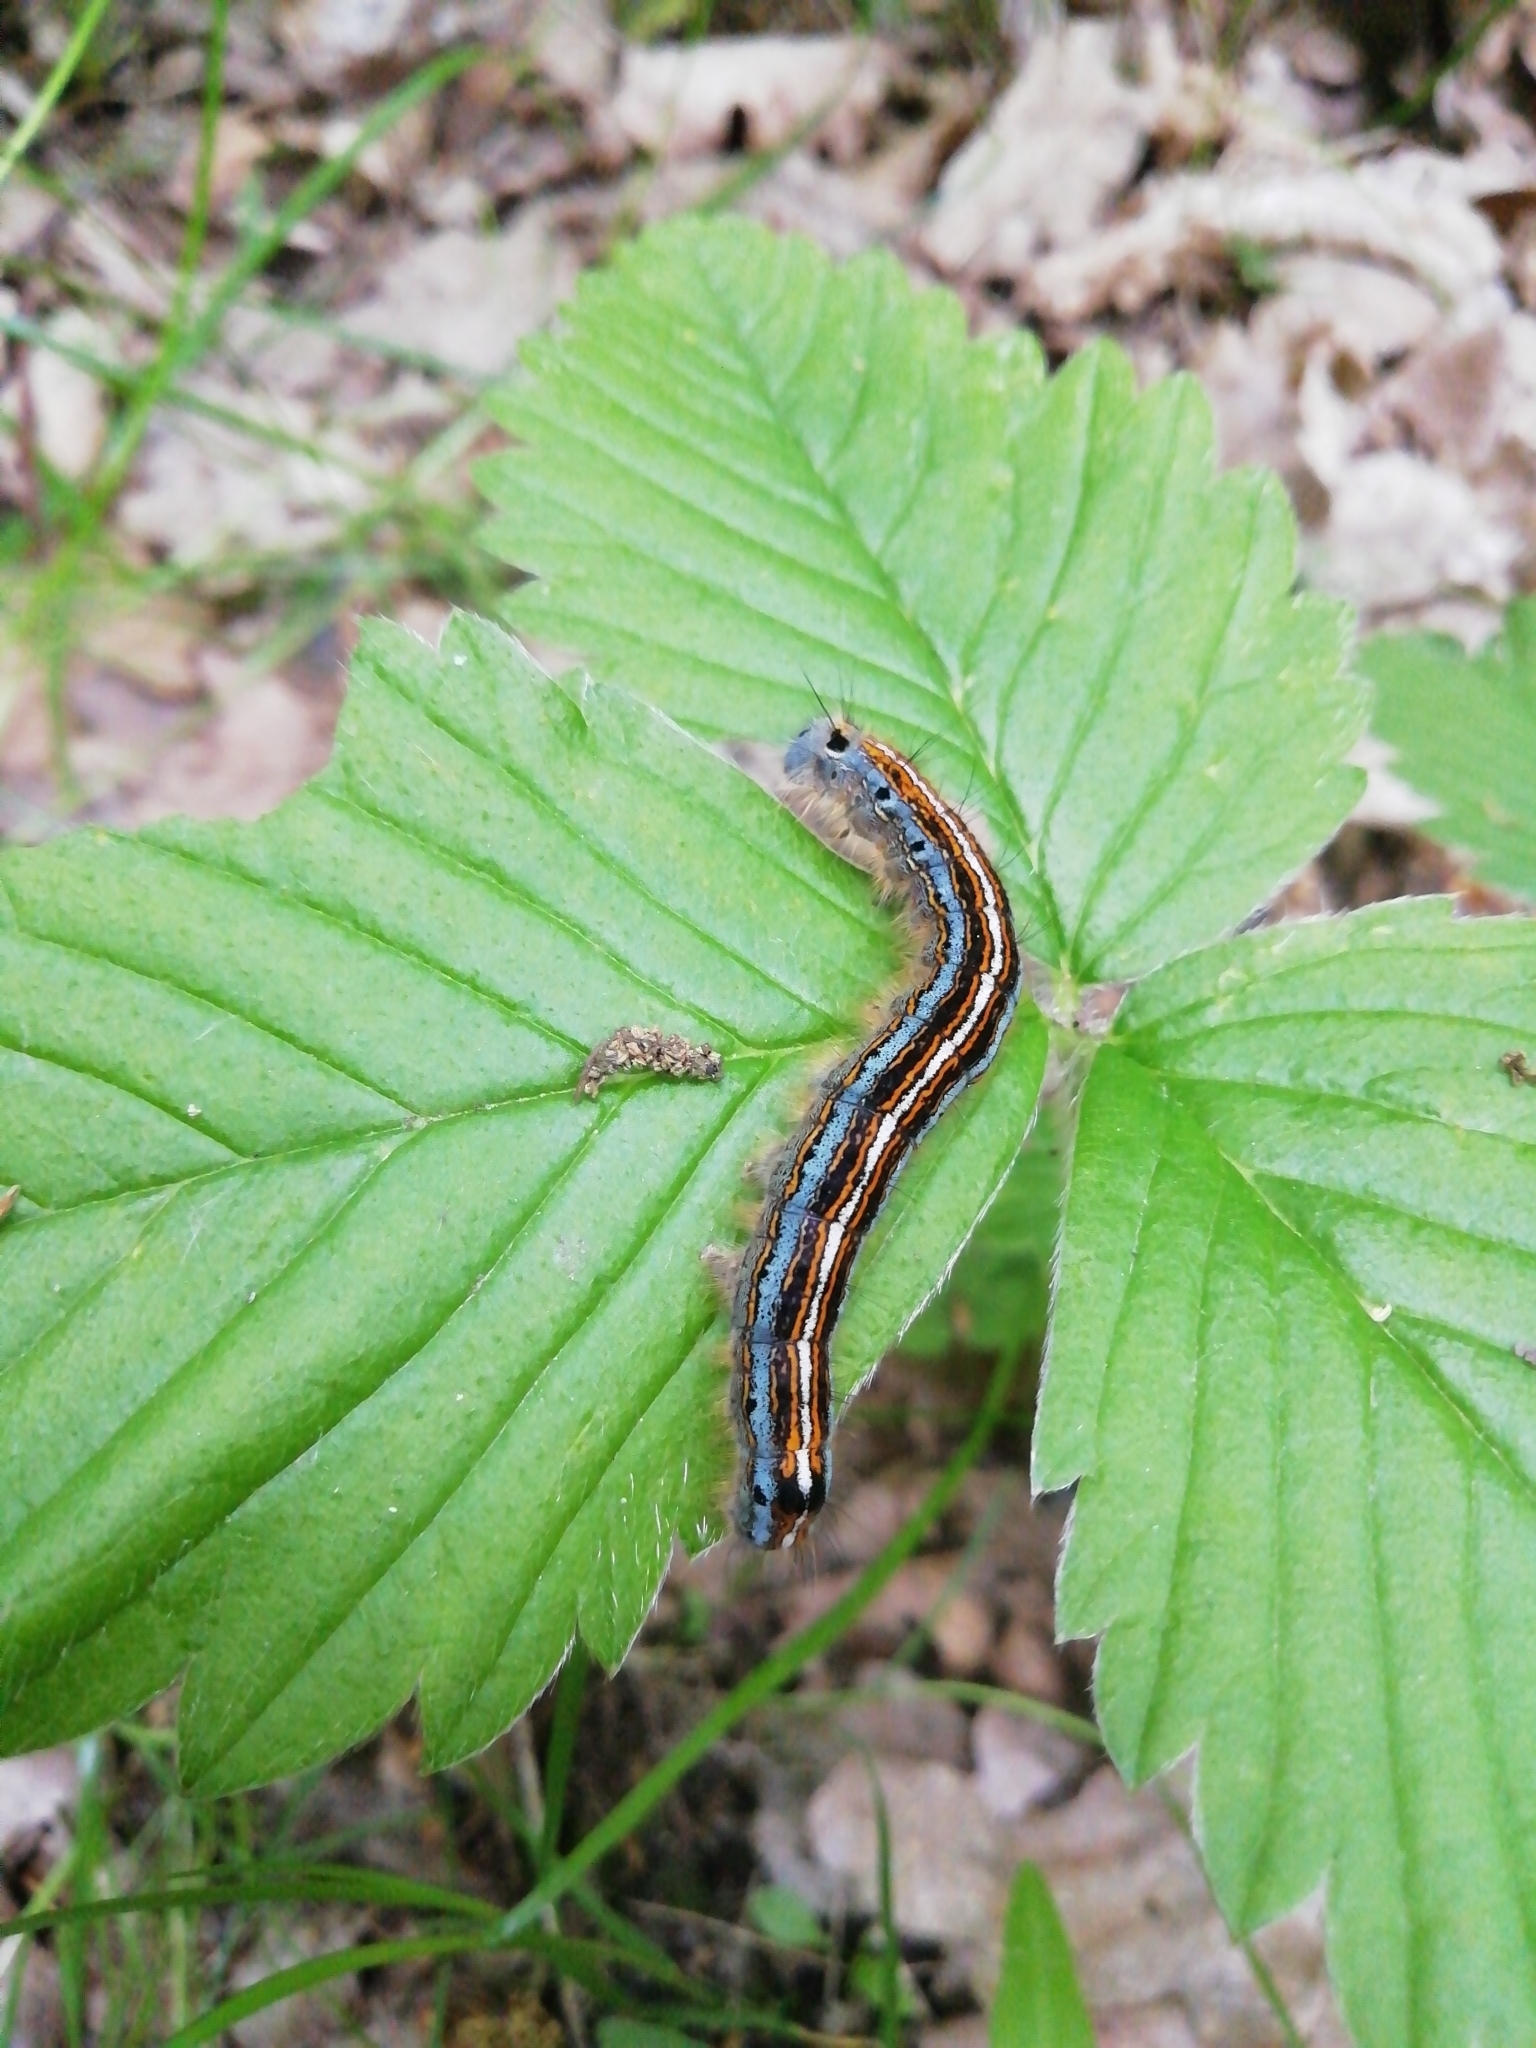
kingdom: Animalia
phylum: Arthropoda
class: Insecta
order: Lepidoptera
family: Lasiocampidae
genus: Malacosoma
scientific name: Malacosoma neustria
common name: The lackey
